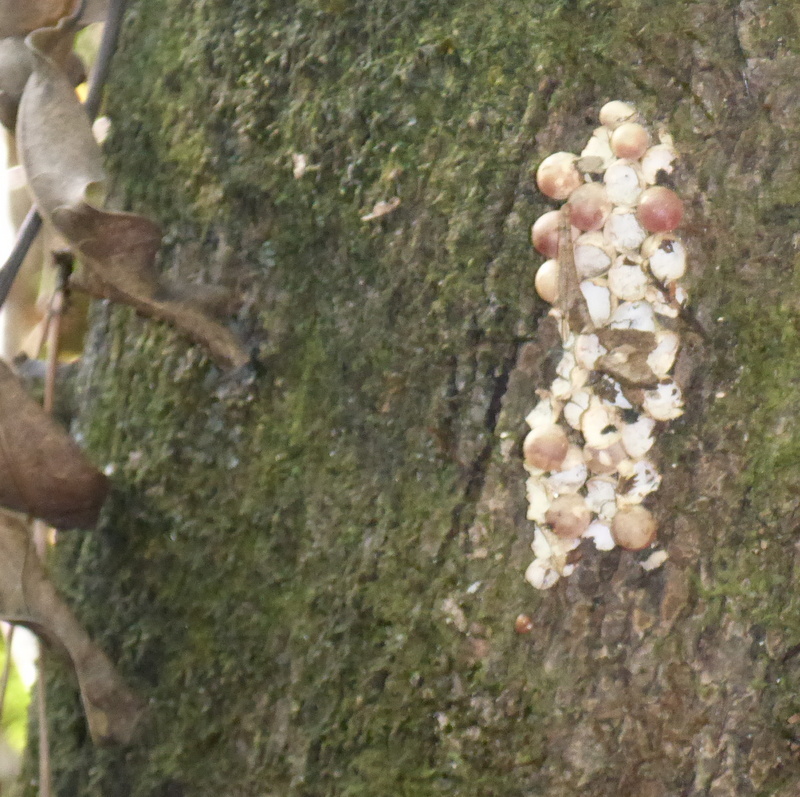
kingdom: Animalia
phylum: Mollusca
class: Gastropoda
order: Architaenioglossa
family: Ampullariidae
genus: Pomacea
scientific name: Pomacea paludosa
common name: Florida applesnail
